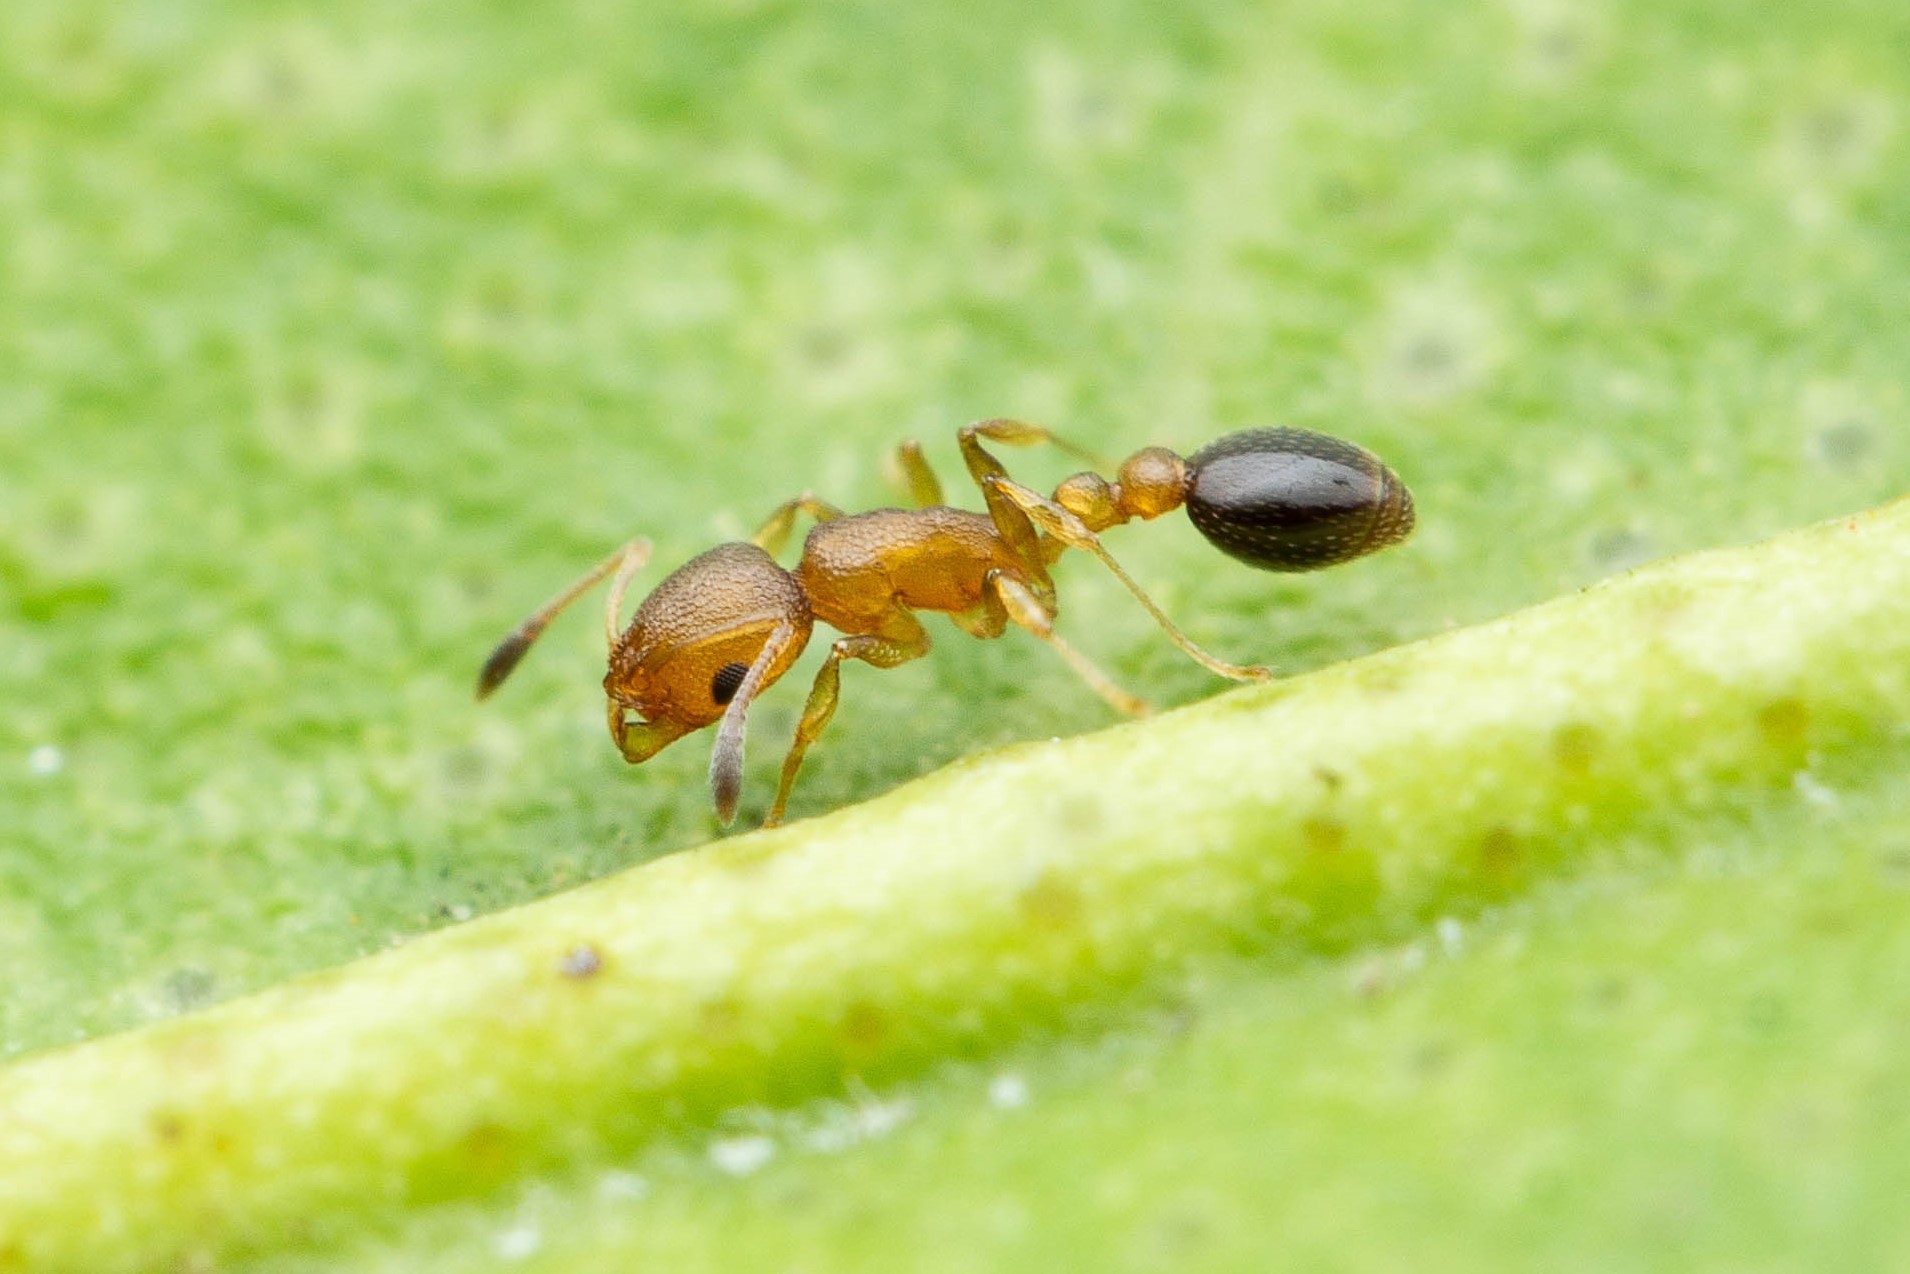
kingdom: Animalia
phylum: Arthropoda
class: Insecta
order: Hymenoptera
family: Formicidae
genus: Cardiocondyla
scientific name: Cardiocondyla obscurior
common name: Ant
